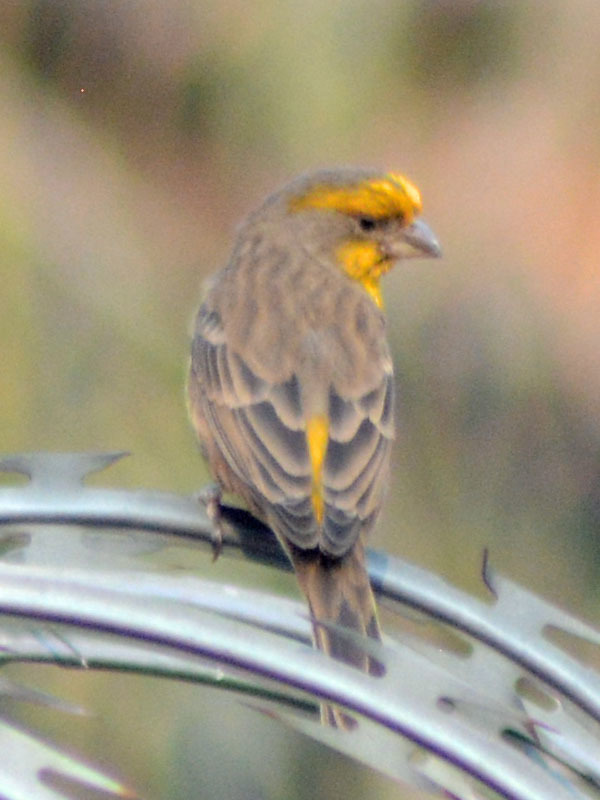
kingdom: Animalia
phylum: Chordata
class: Aves
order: Passeriformes
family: Fringillidae
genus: Haemorhous
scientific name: Haemorhous mexicanus
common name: House finch
